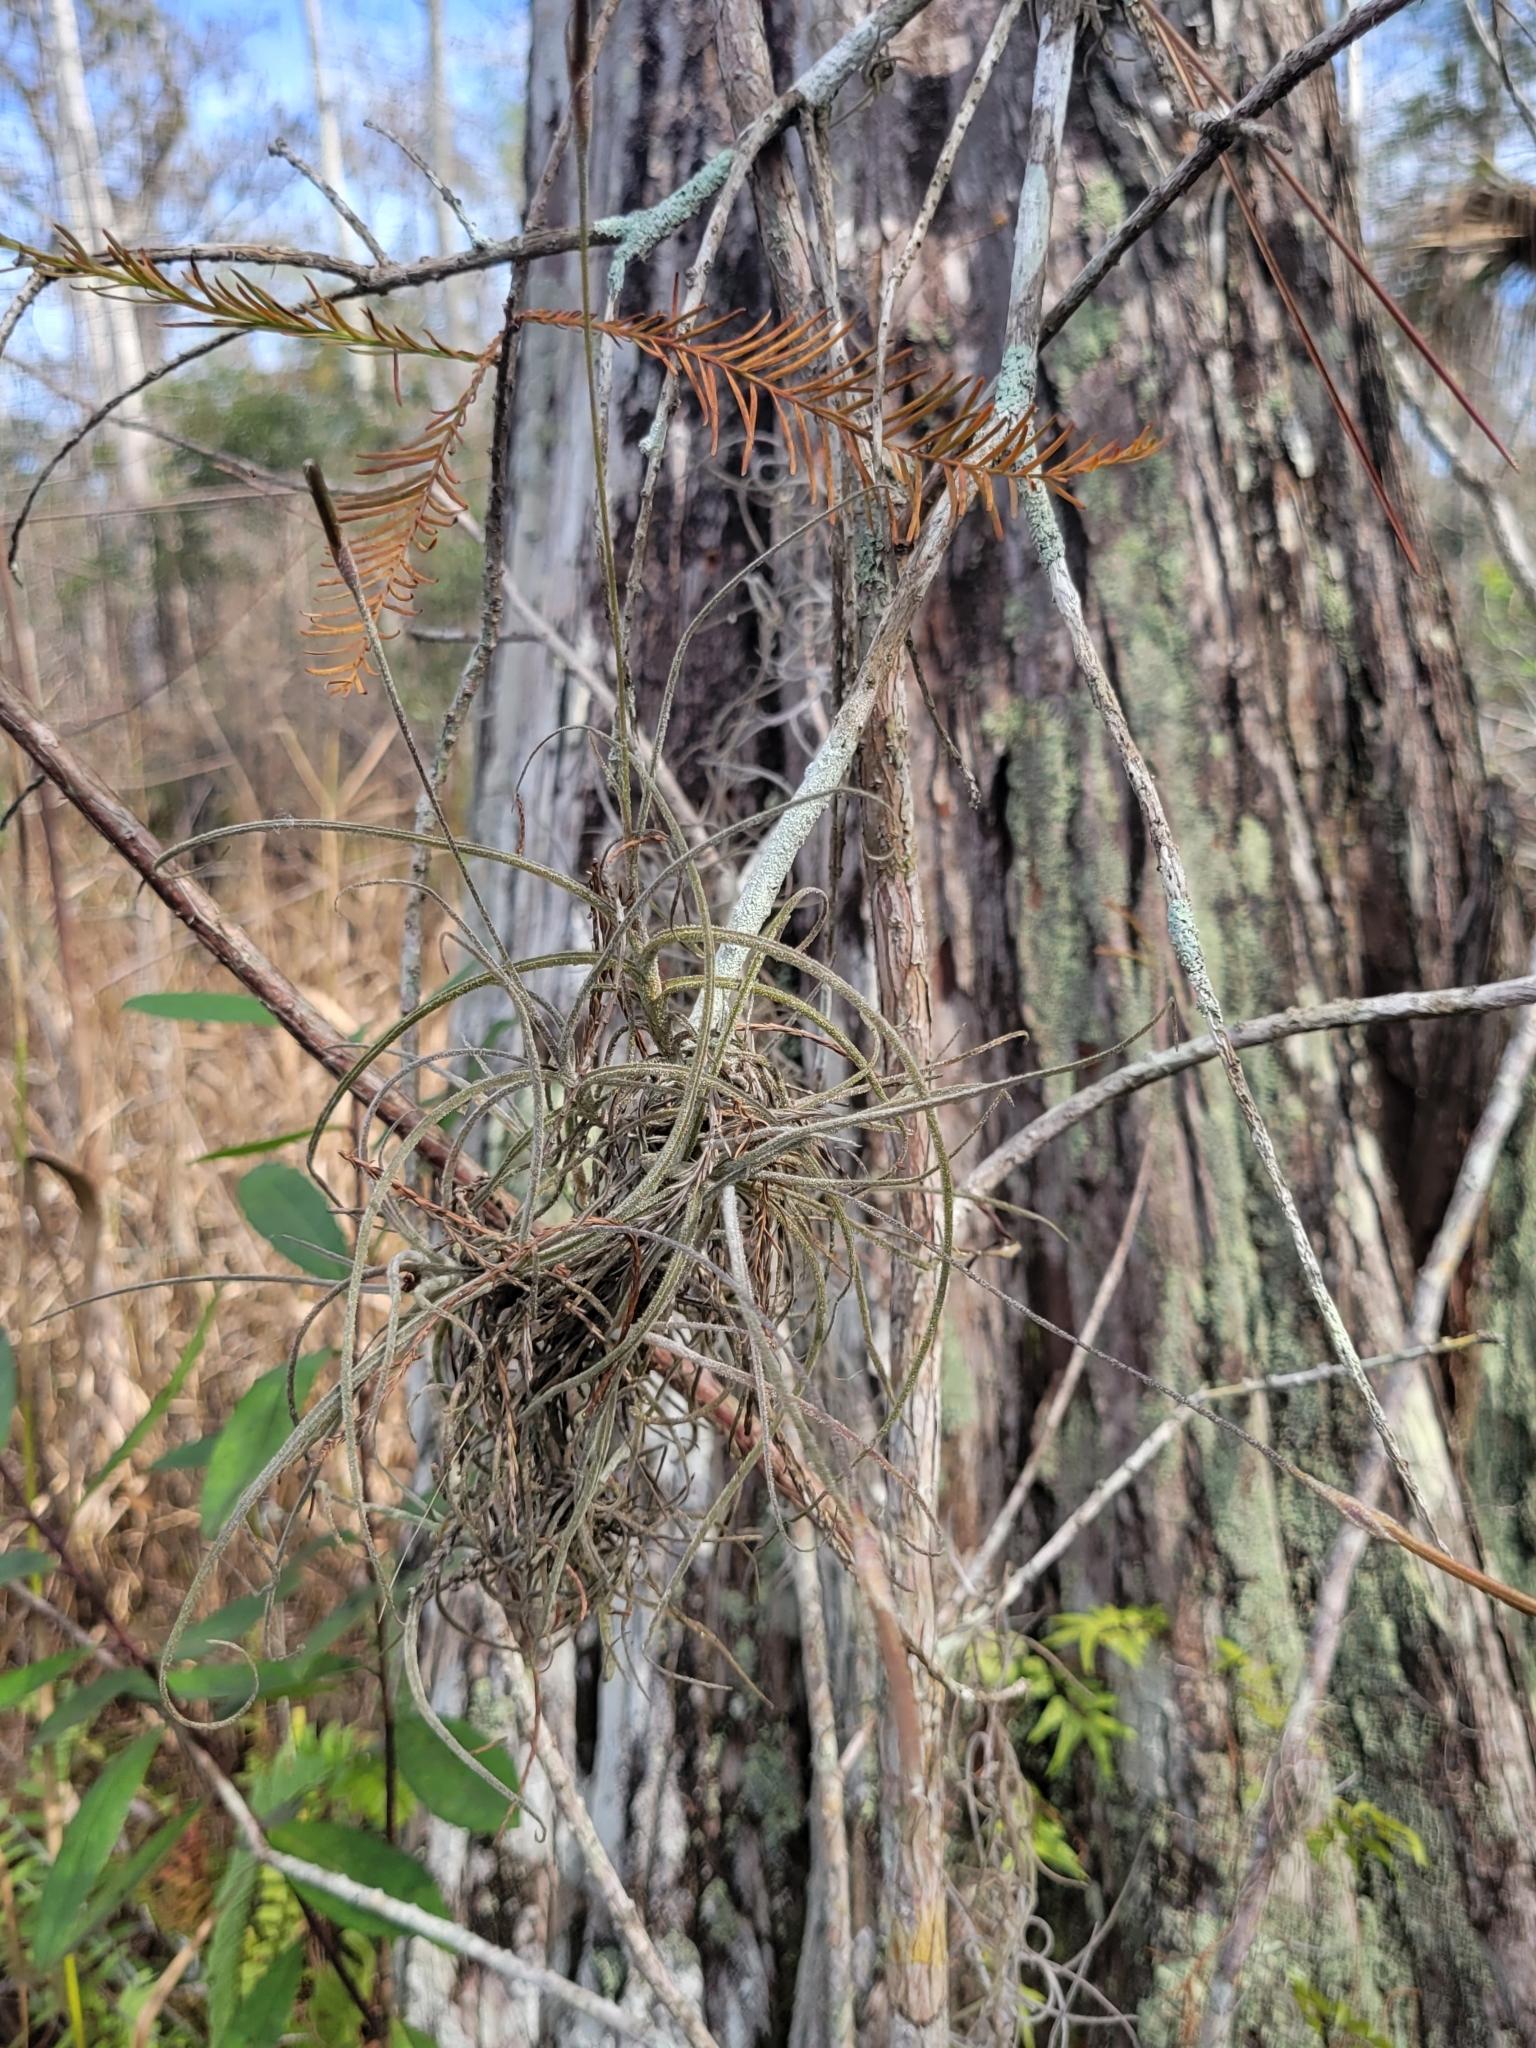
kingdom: Plantae
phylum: Tracheophyta
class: Liliopsida
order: Poales
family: Bromeliaceae
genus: Tillandsia
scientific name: Tillandsia recurvata
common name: Small ballmoss
